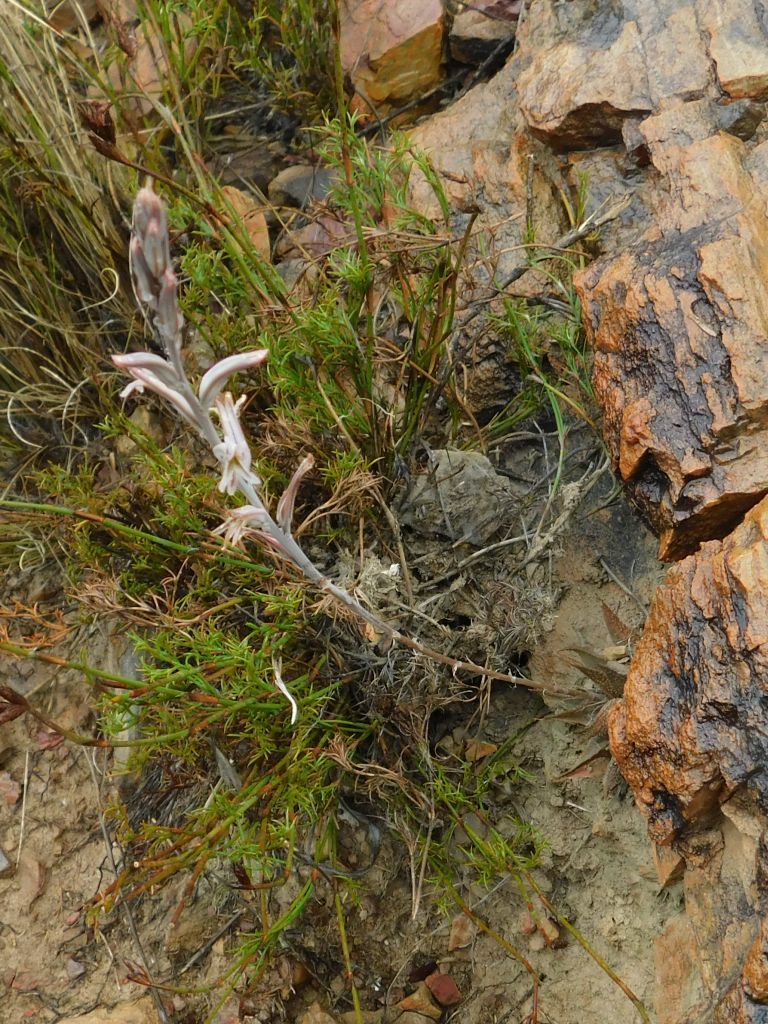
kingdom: Plantae
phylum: Tracheophyta
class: Liliopsida
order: Asparagales
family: Asphodelaceae
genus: Haworthia
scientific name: Haworthia mirabilis
